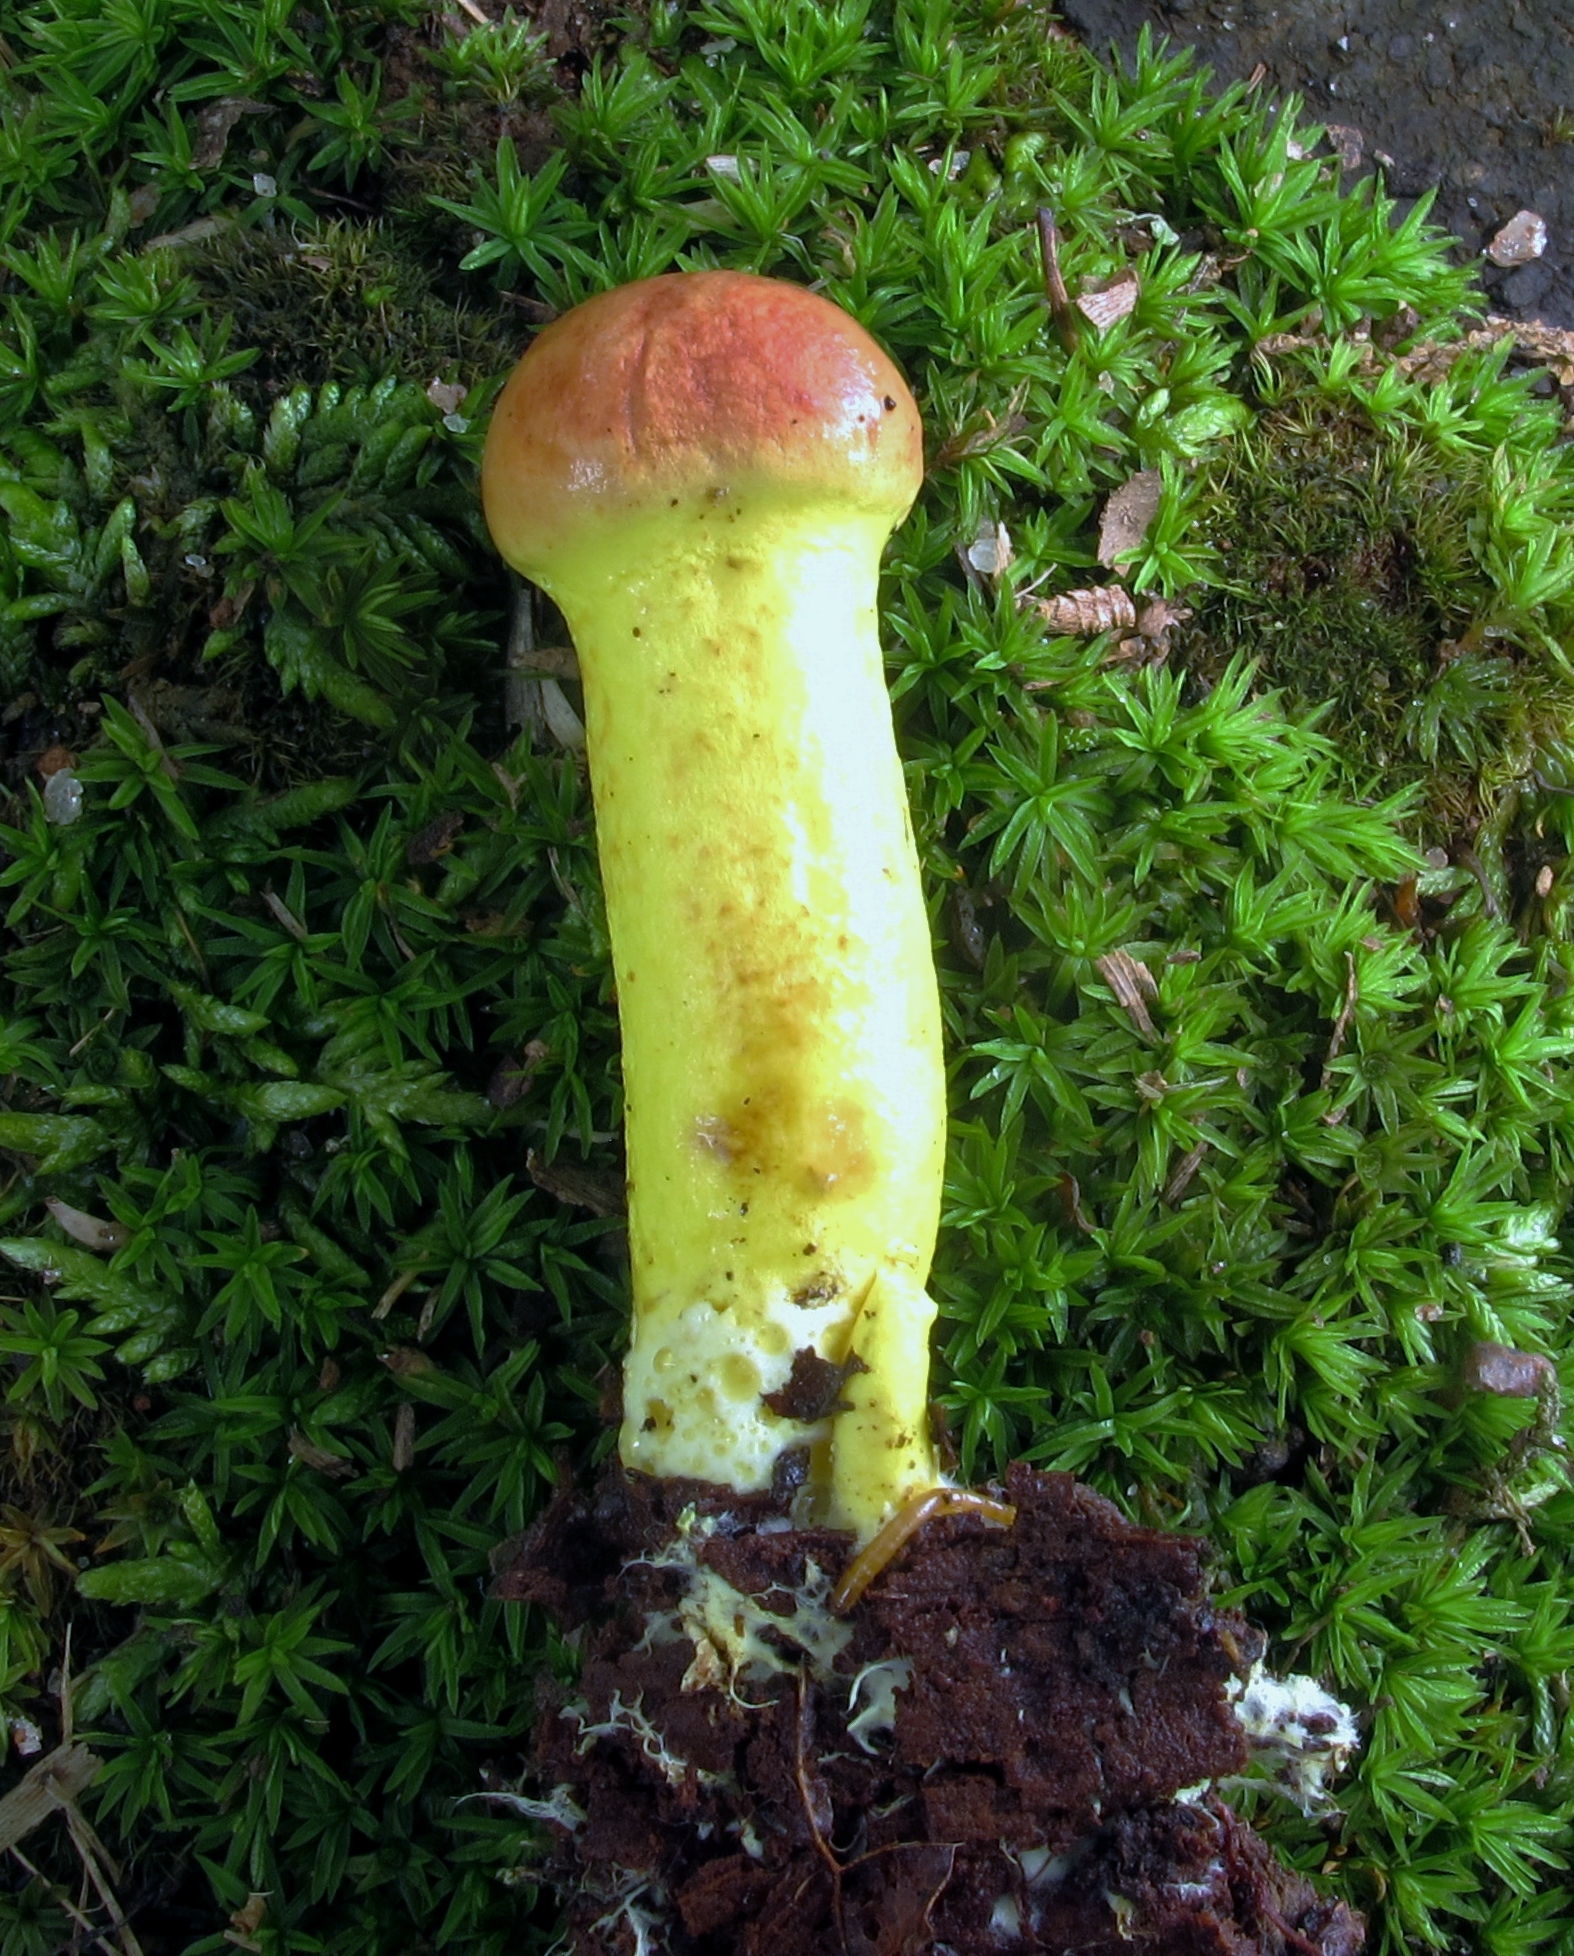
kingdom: Fungi
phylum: Basidiomycota
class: Agaricomycetes
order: Boletales
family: Boletaceae
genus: Pulveroboletus
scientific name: Pulveroboletus ravenelii
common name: Powdery sulfur bolete
